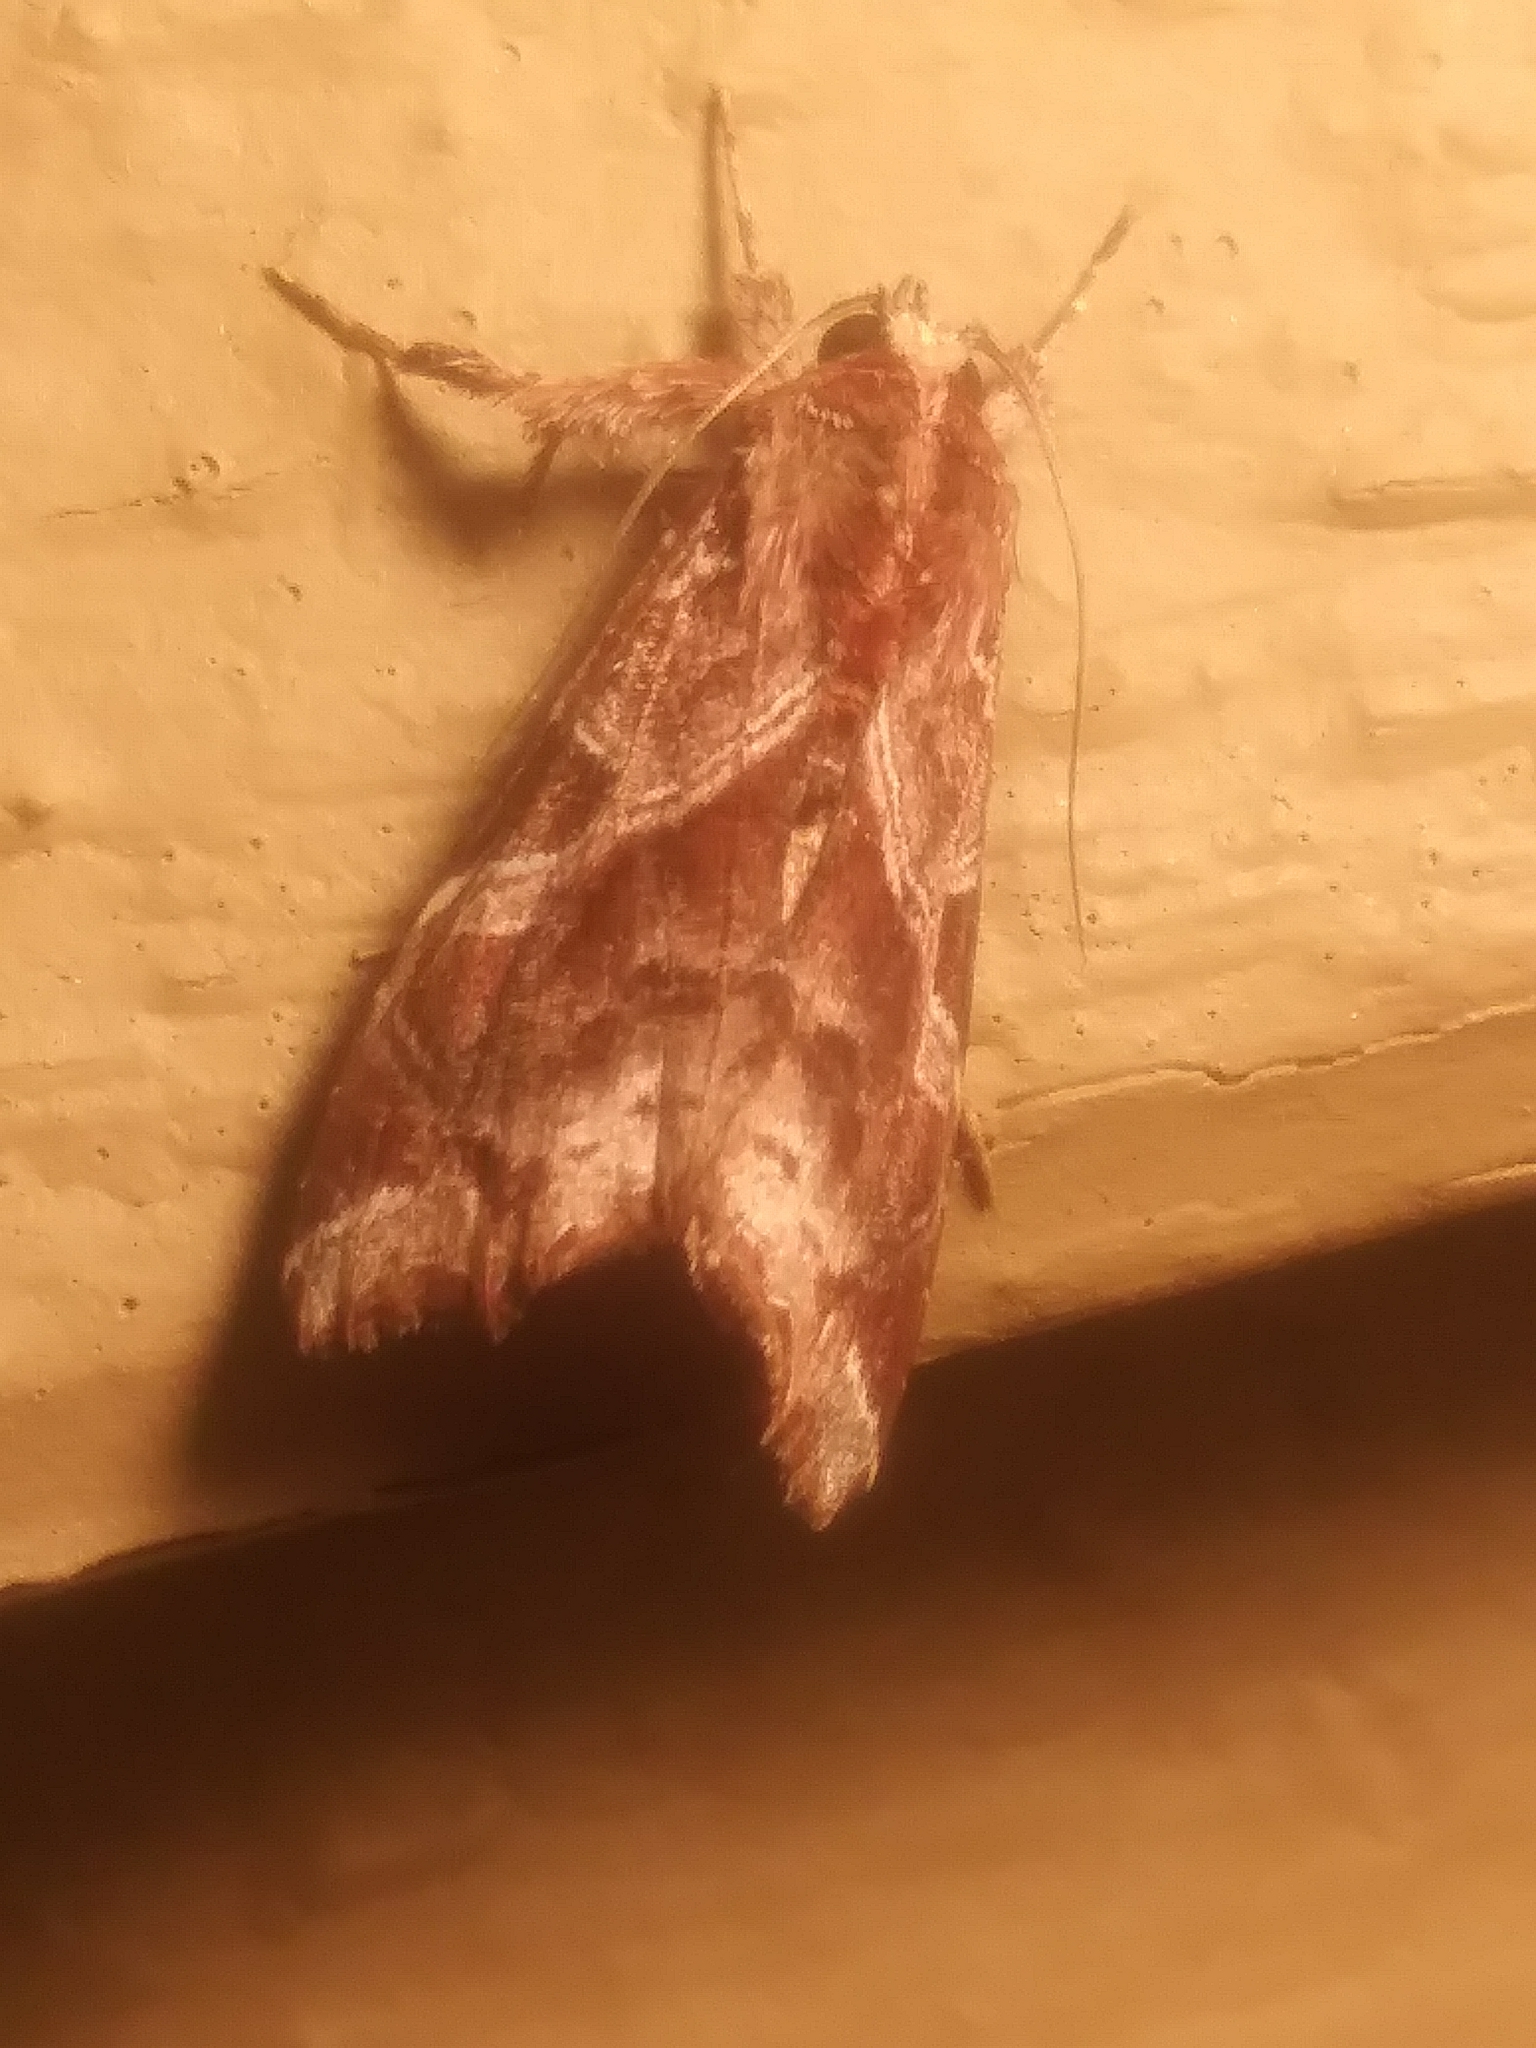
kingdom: Animalia
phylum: Arthropoda
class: Insecta
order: Lepidoptera
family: Noctuidae
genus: Callopistria
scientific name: Callopistria floridensis
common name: Florida fern moth
